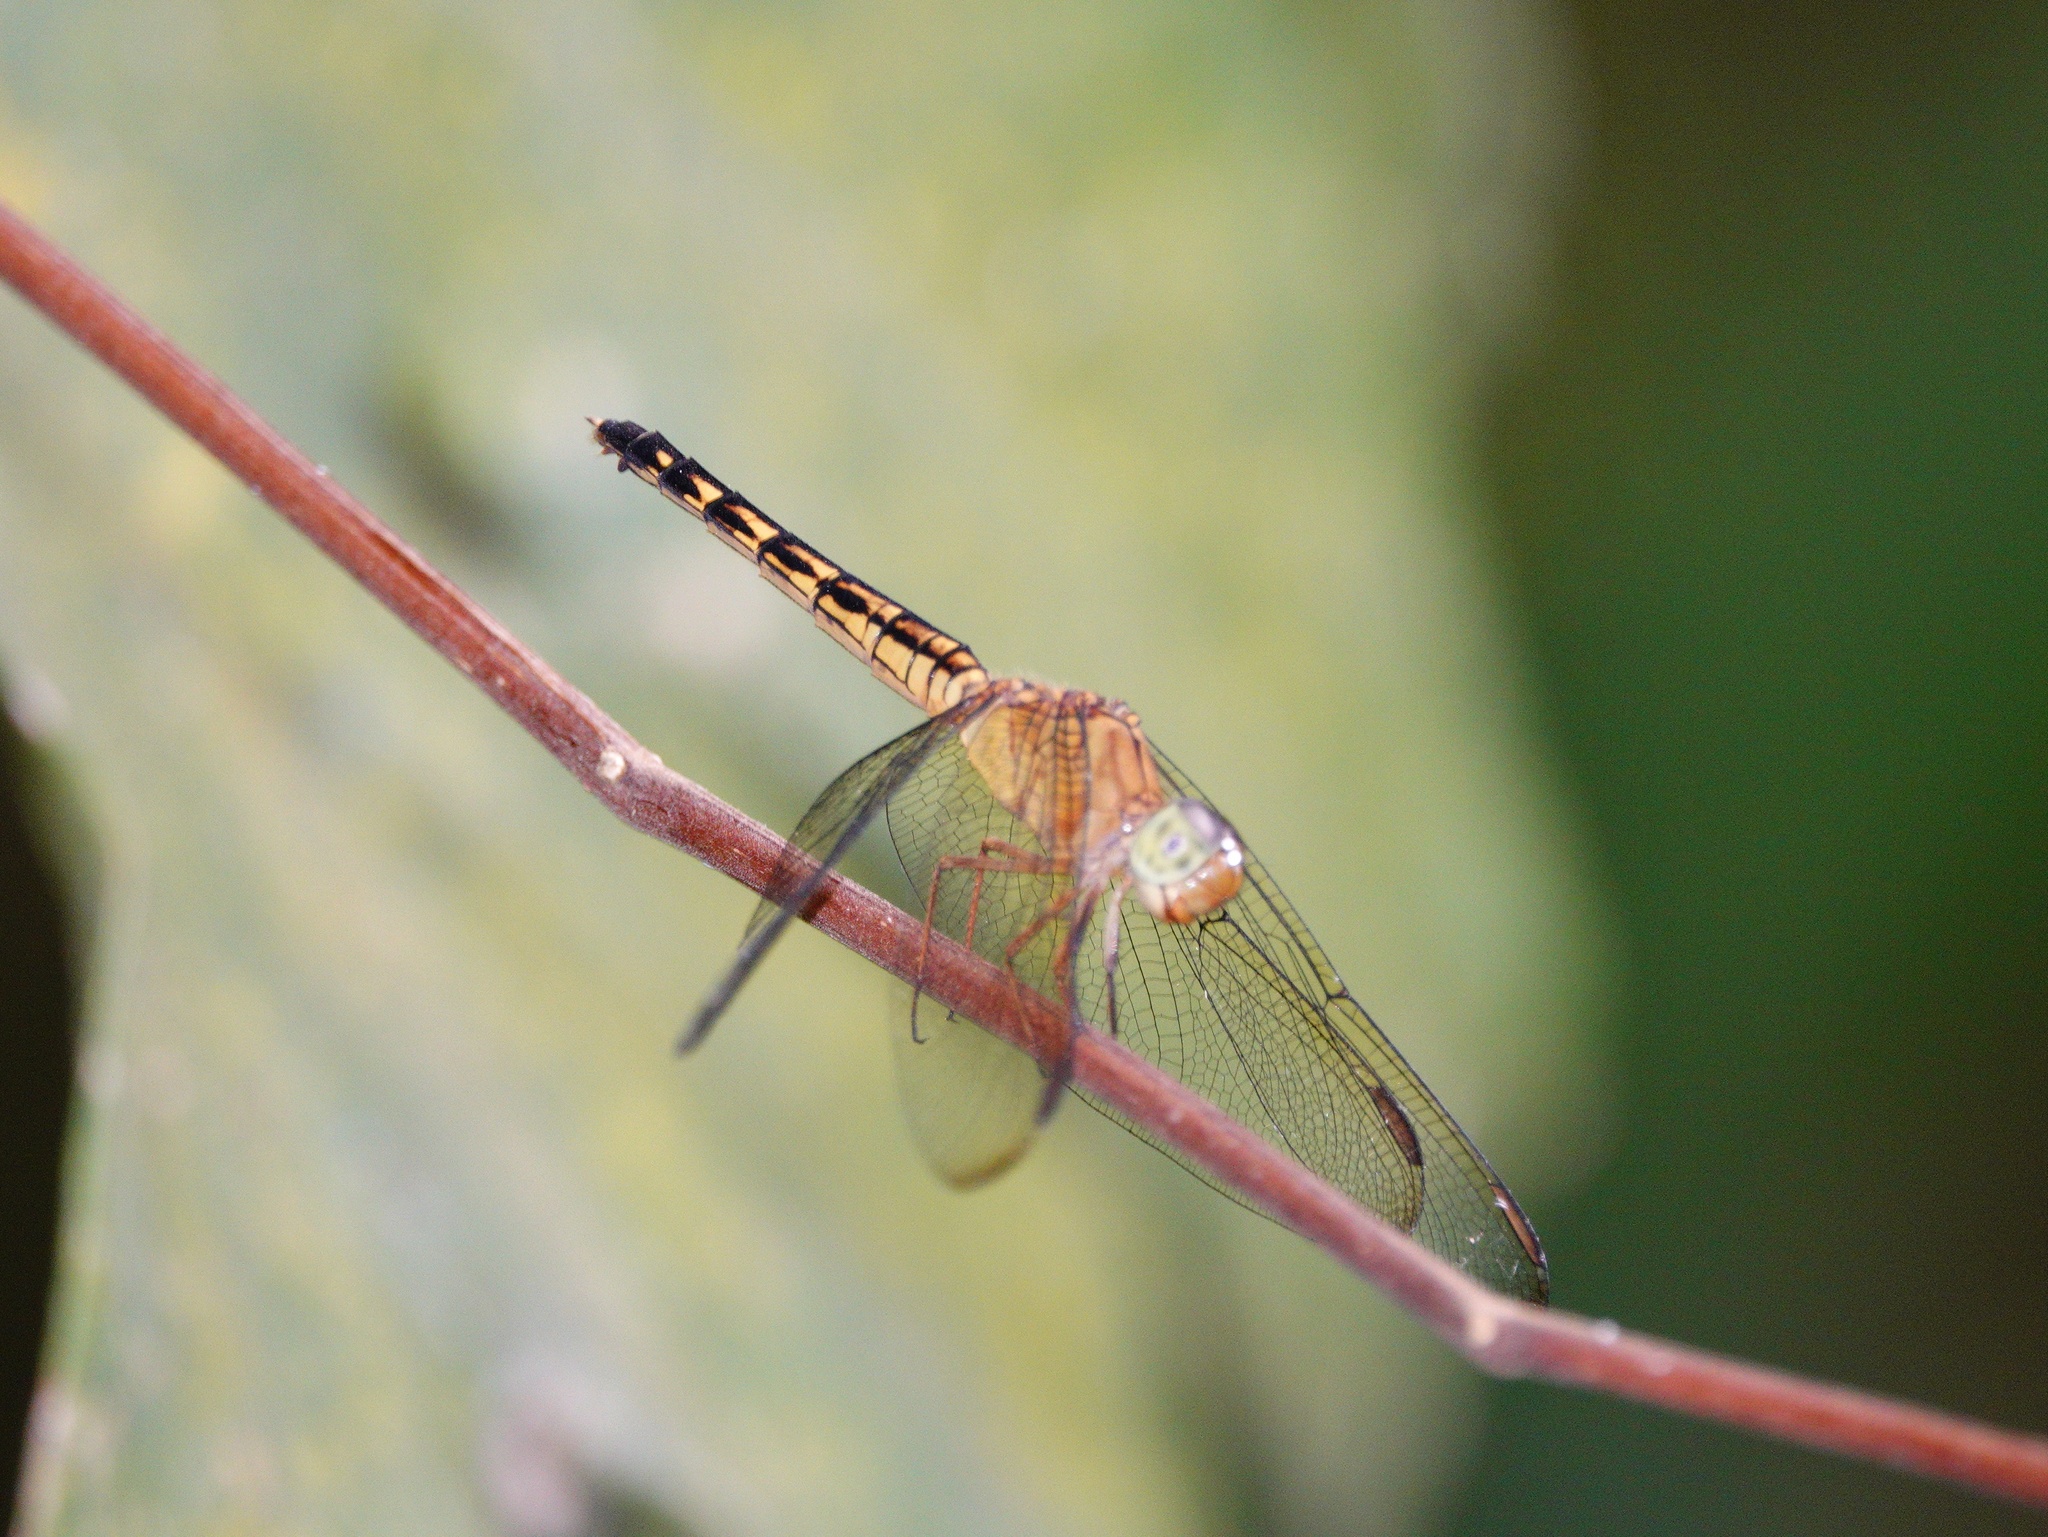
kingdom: Animalia
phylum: Arthropoda
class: Insecta
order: Odonata
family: Libellulidae
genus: Neurothemis
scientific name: Neurothemis terminata
